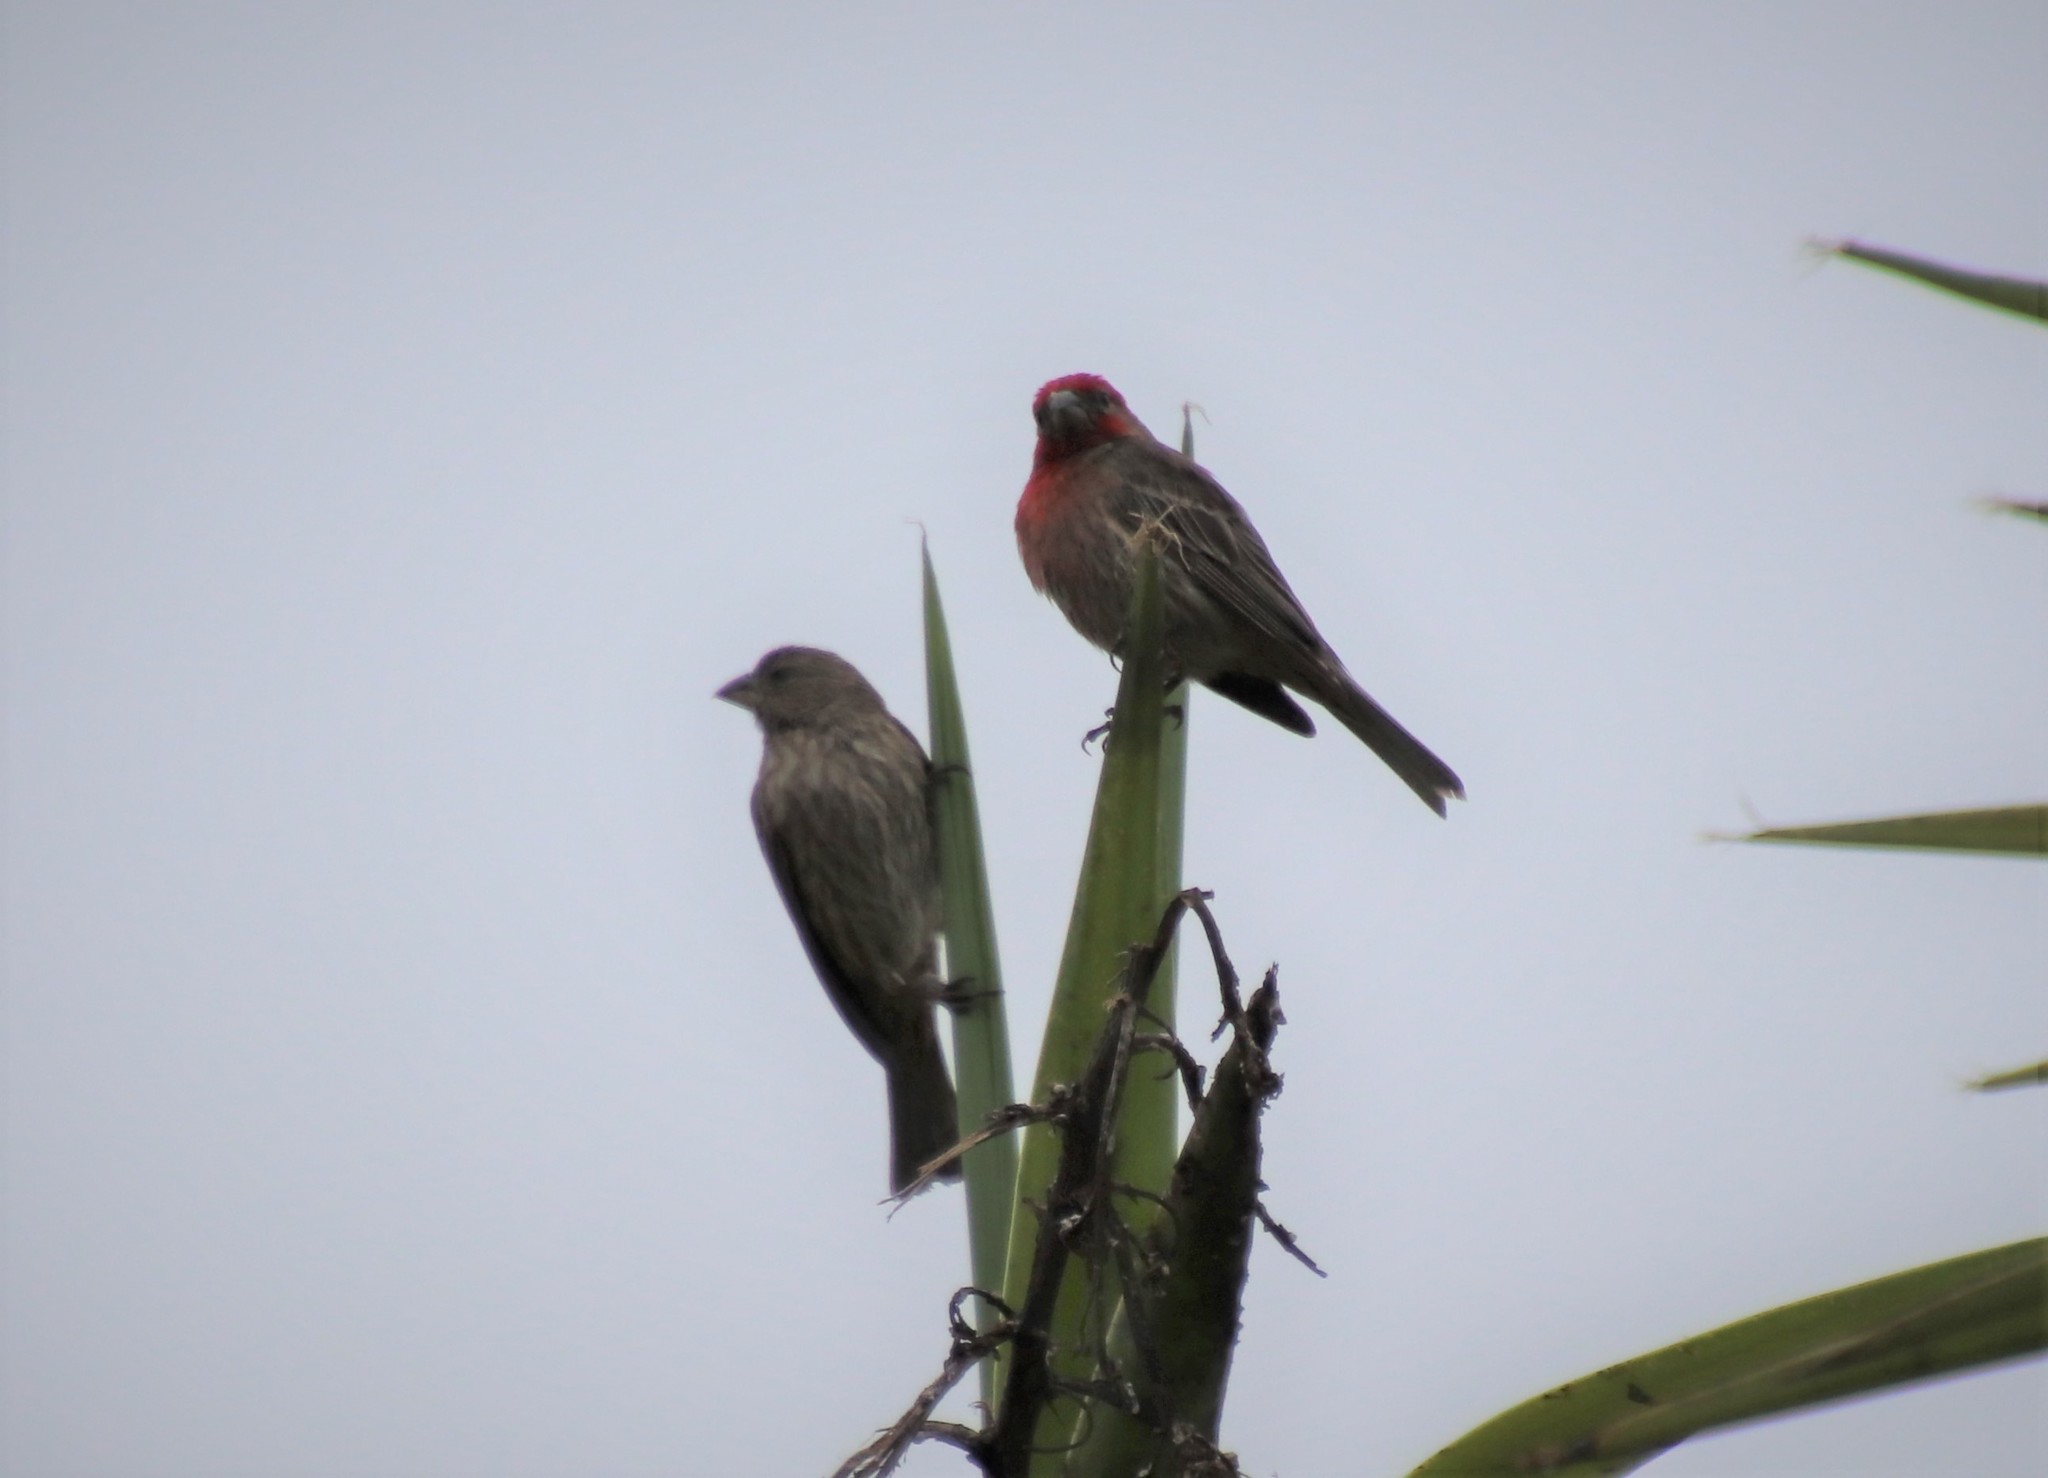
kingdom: Animalia
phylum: Chordata
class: Aves
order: Passeriformes
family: Fringillidae
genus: Haemorhous
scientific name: Haemorhous mexicanus
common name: House finch
